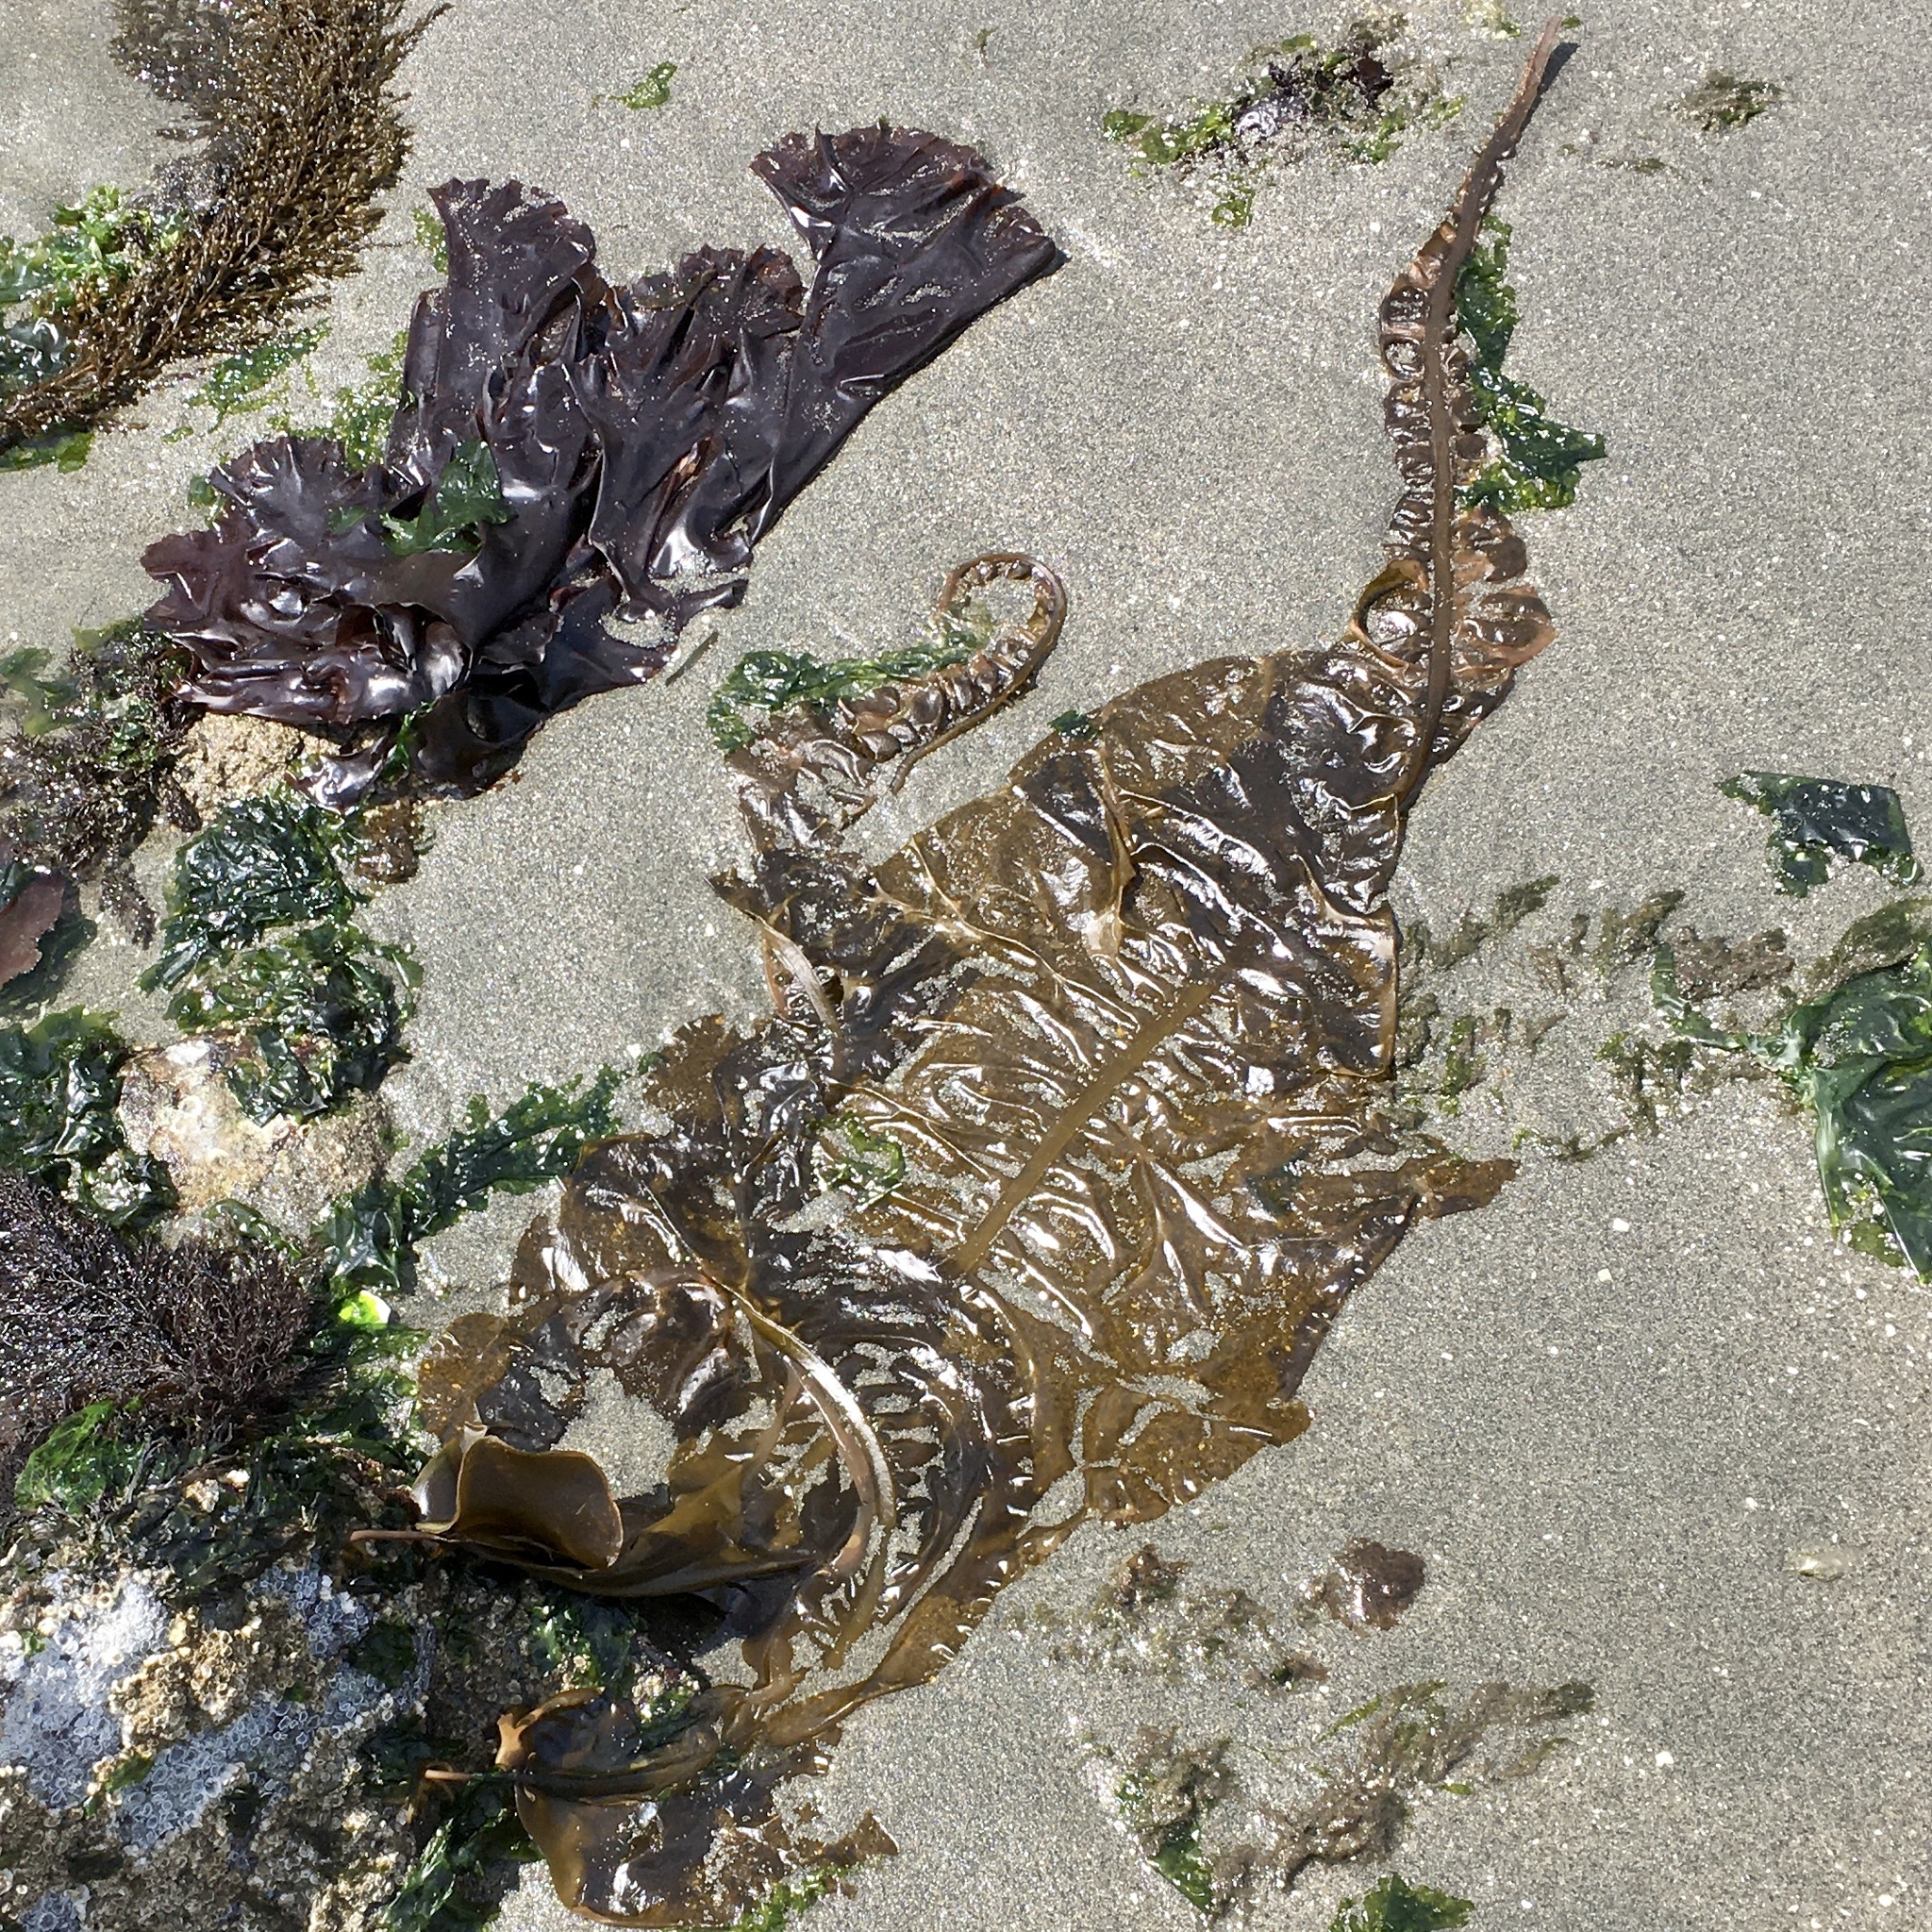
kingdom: Chromista
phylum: Ochrophyta
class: Phaeophyceae
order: Laminariales
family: Alariaceae
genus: Alaria
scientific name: Alaria marginata
